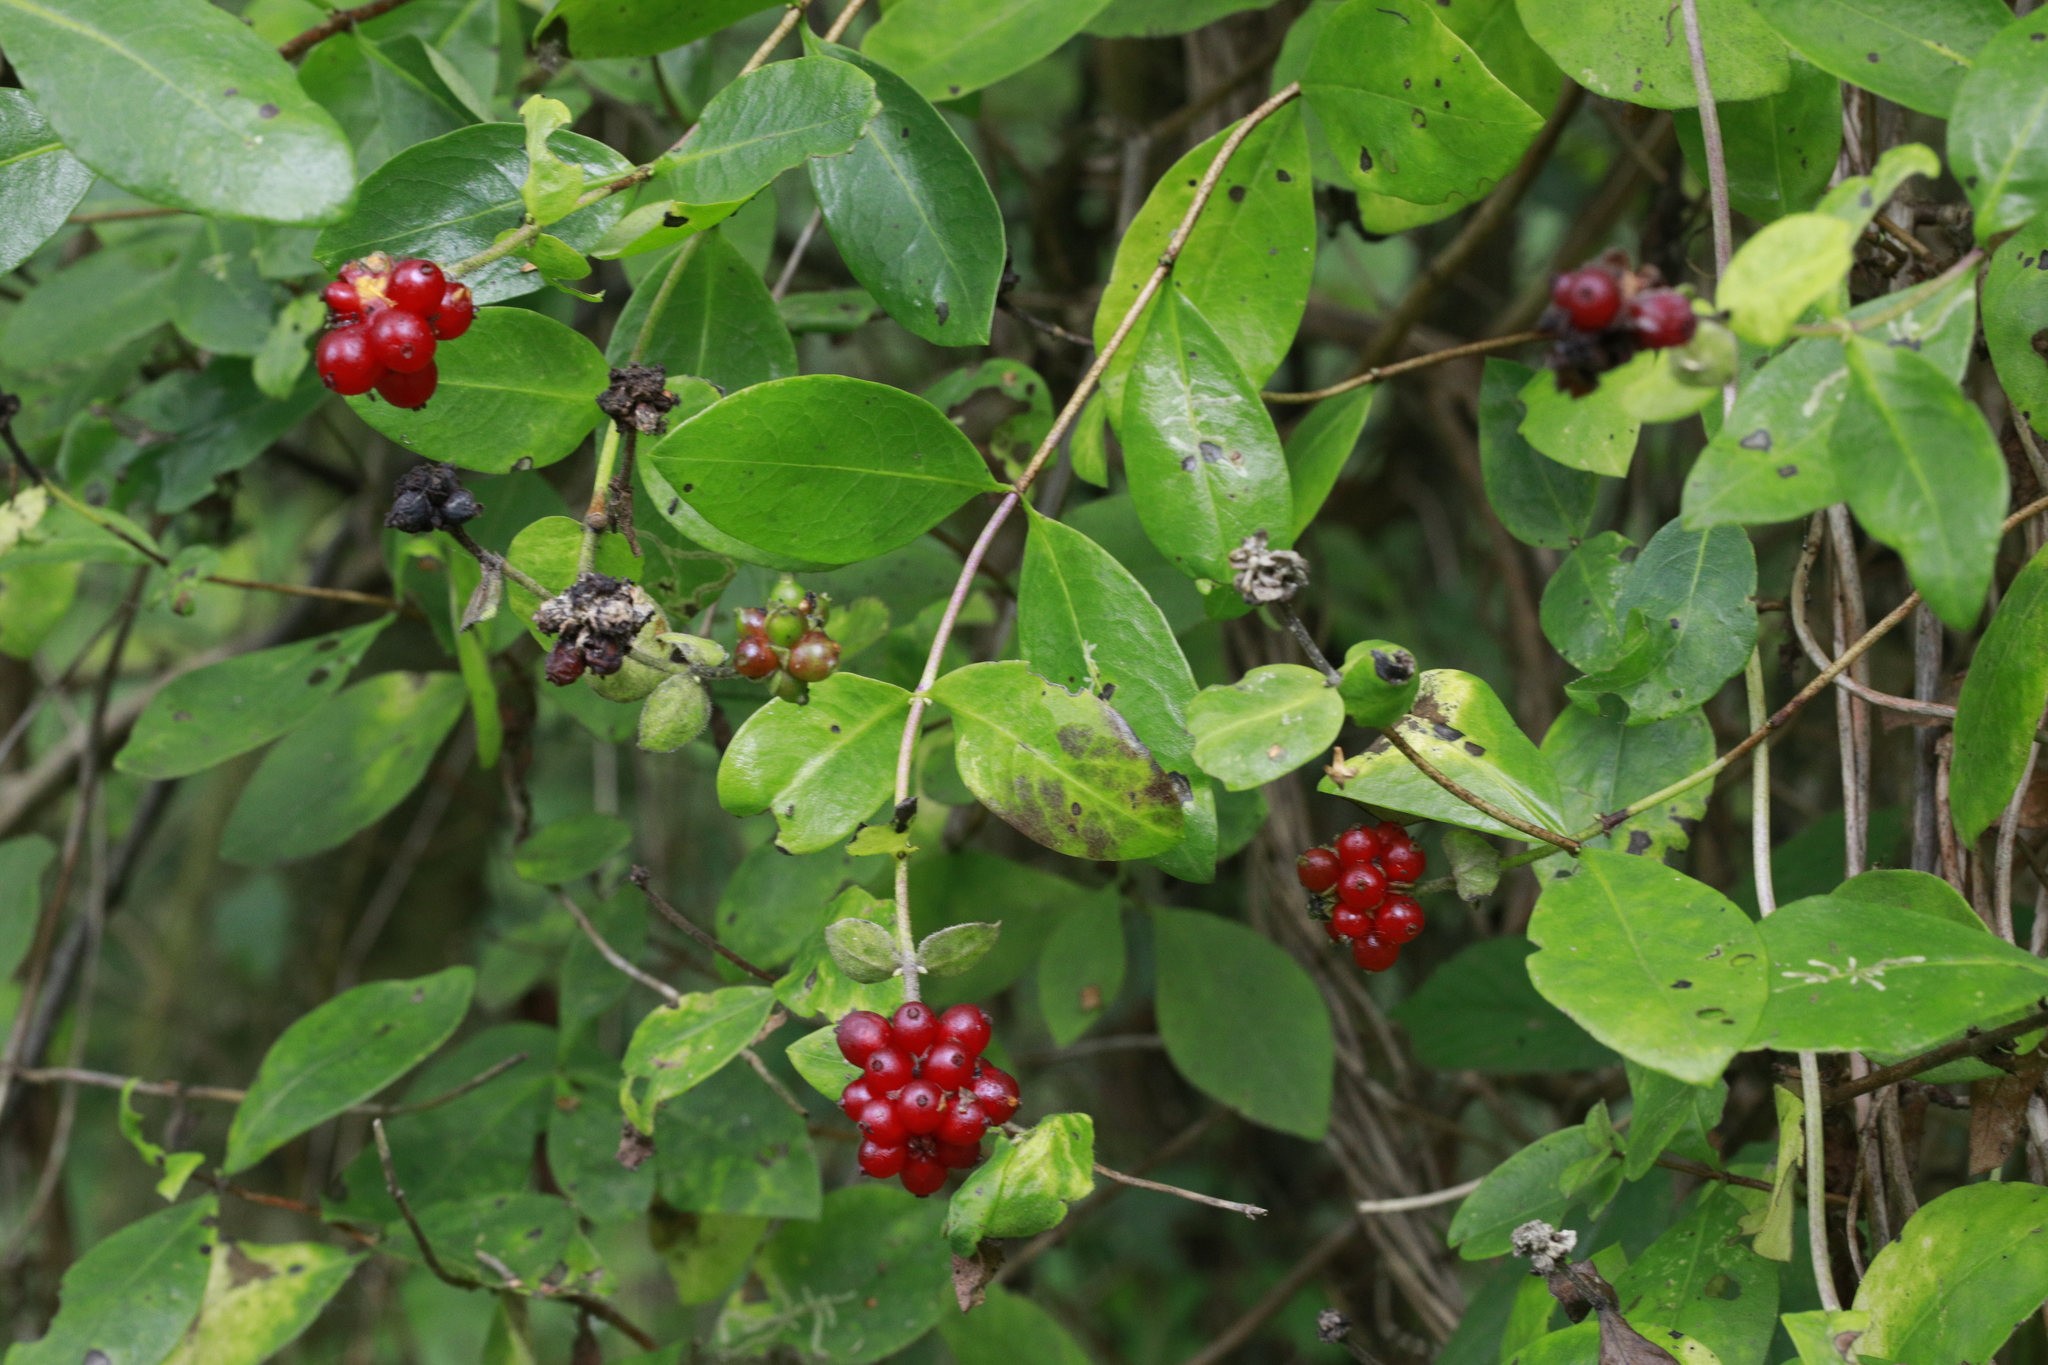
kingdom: Plantae
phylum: Tracheophyta
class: Magnoliopsida
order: Dipsacales
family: Caprifoliaceae
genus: Lonicera
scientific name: Lonicera periclymenum
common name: European honeysuckle
